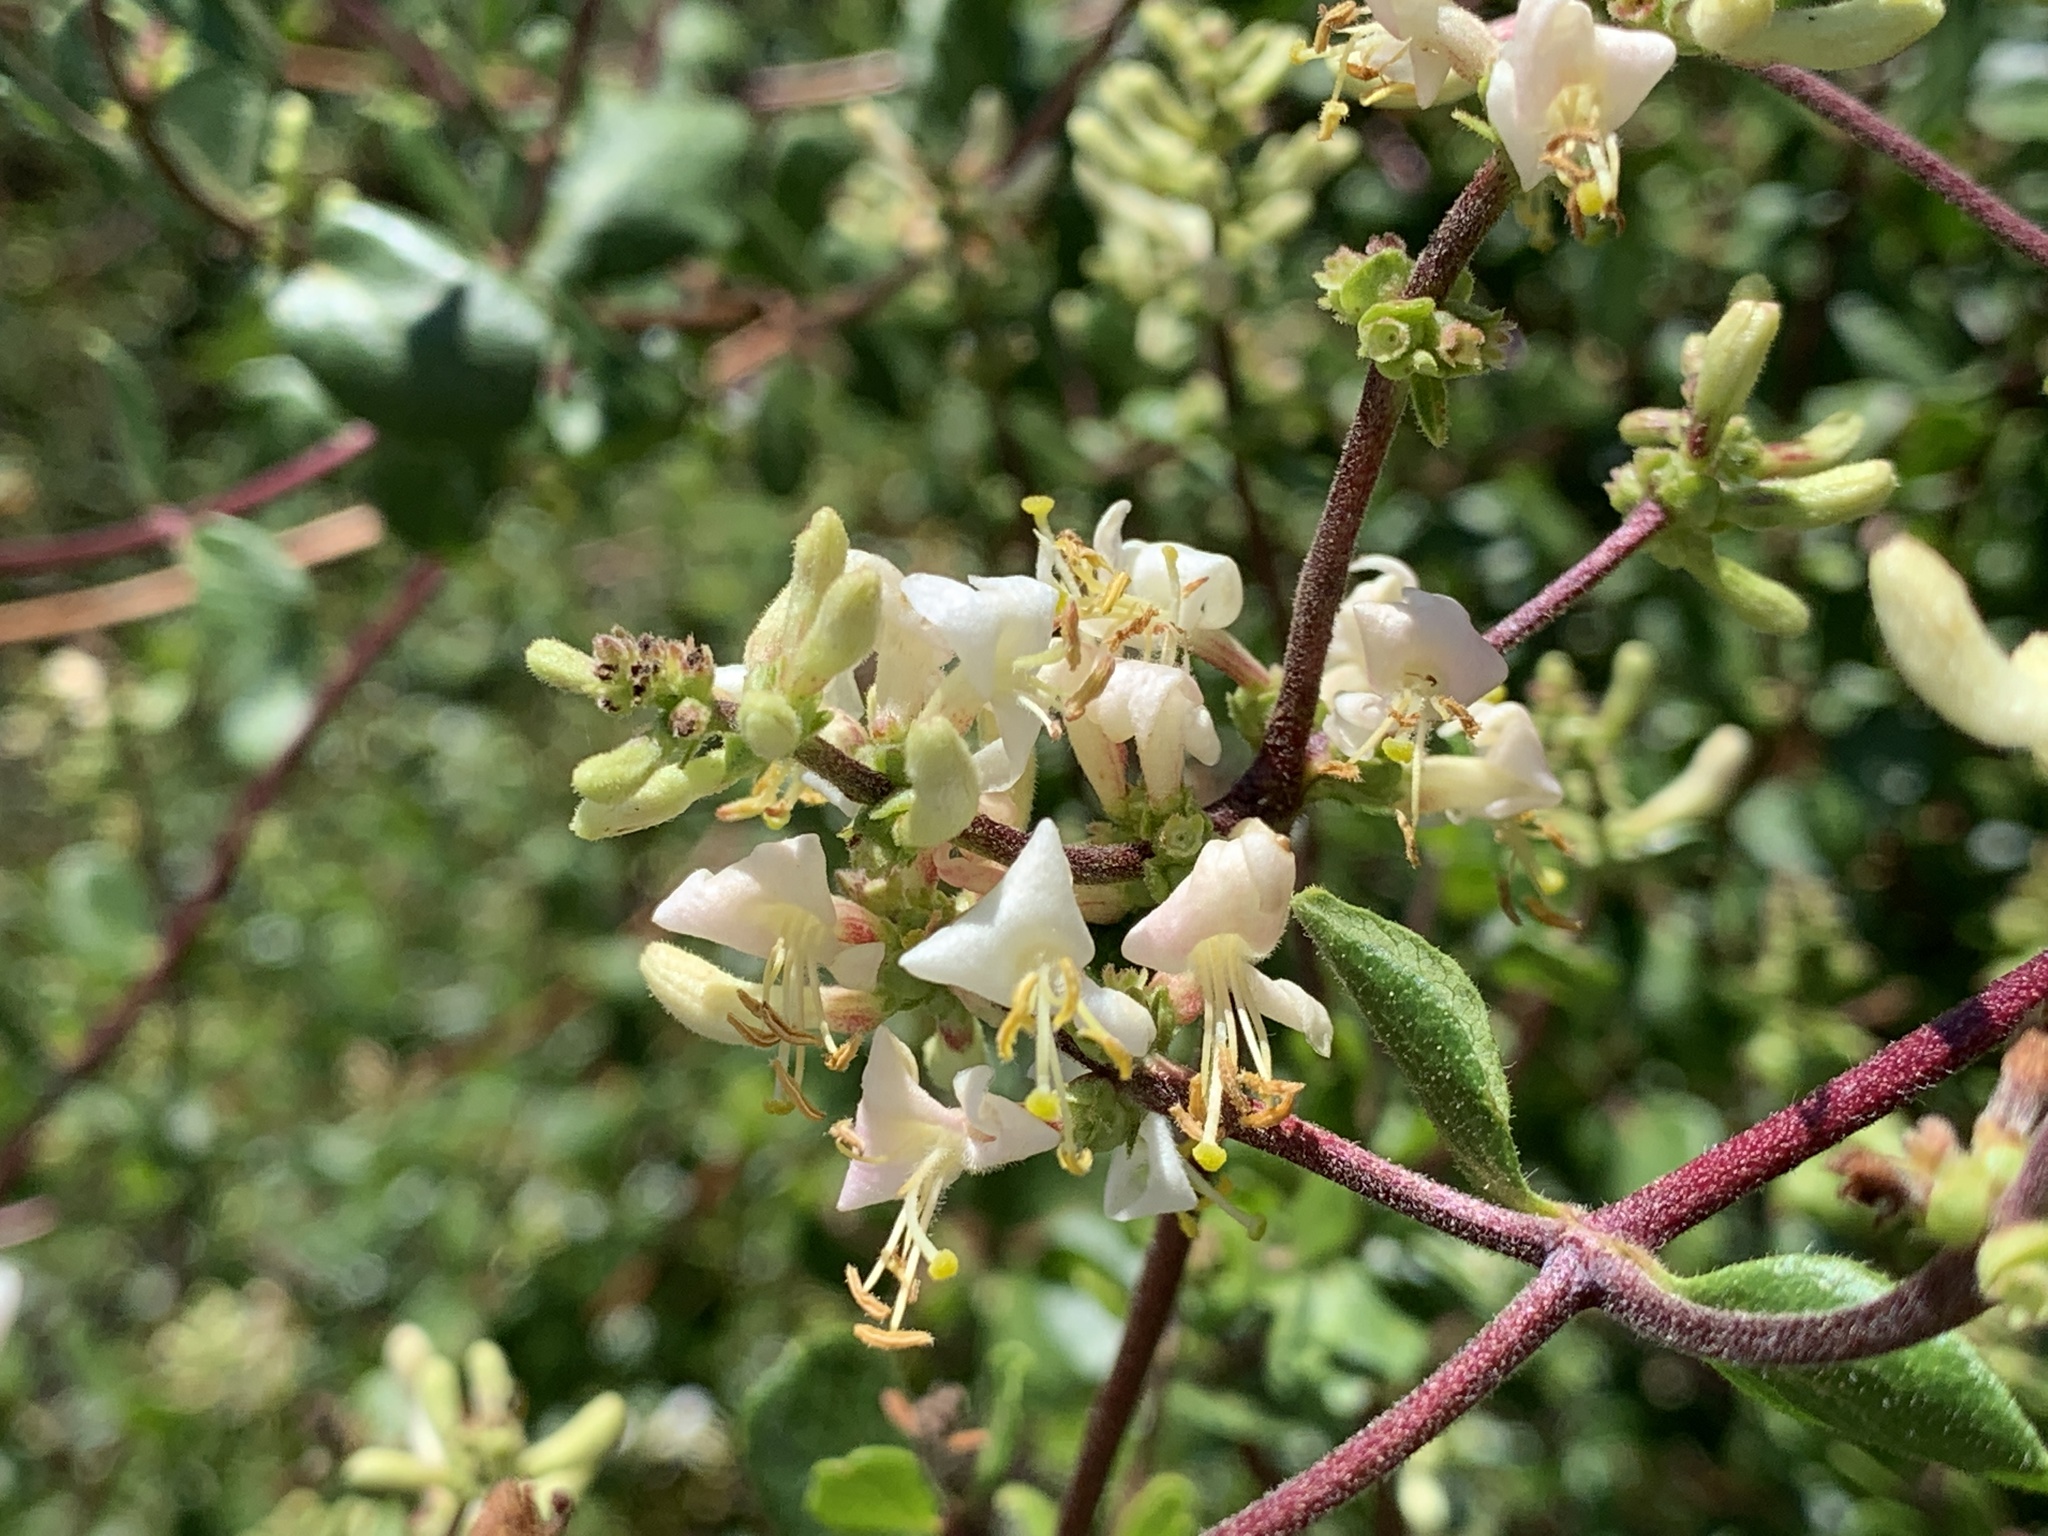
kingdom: Plantae
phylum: Tracheophyta
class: Magnoliopsida
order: Dipsacales
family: Caprifoliaceae
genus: Lonicera
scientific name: Lonicera subspicata
